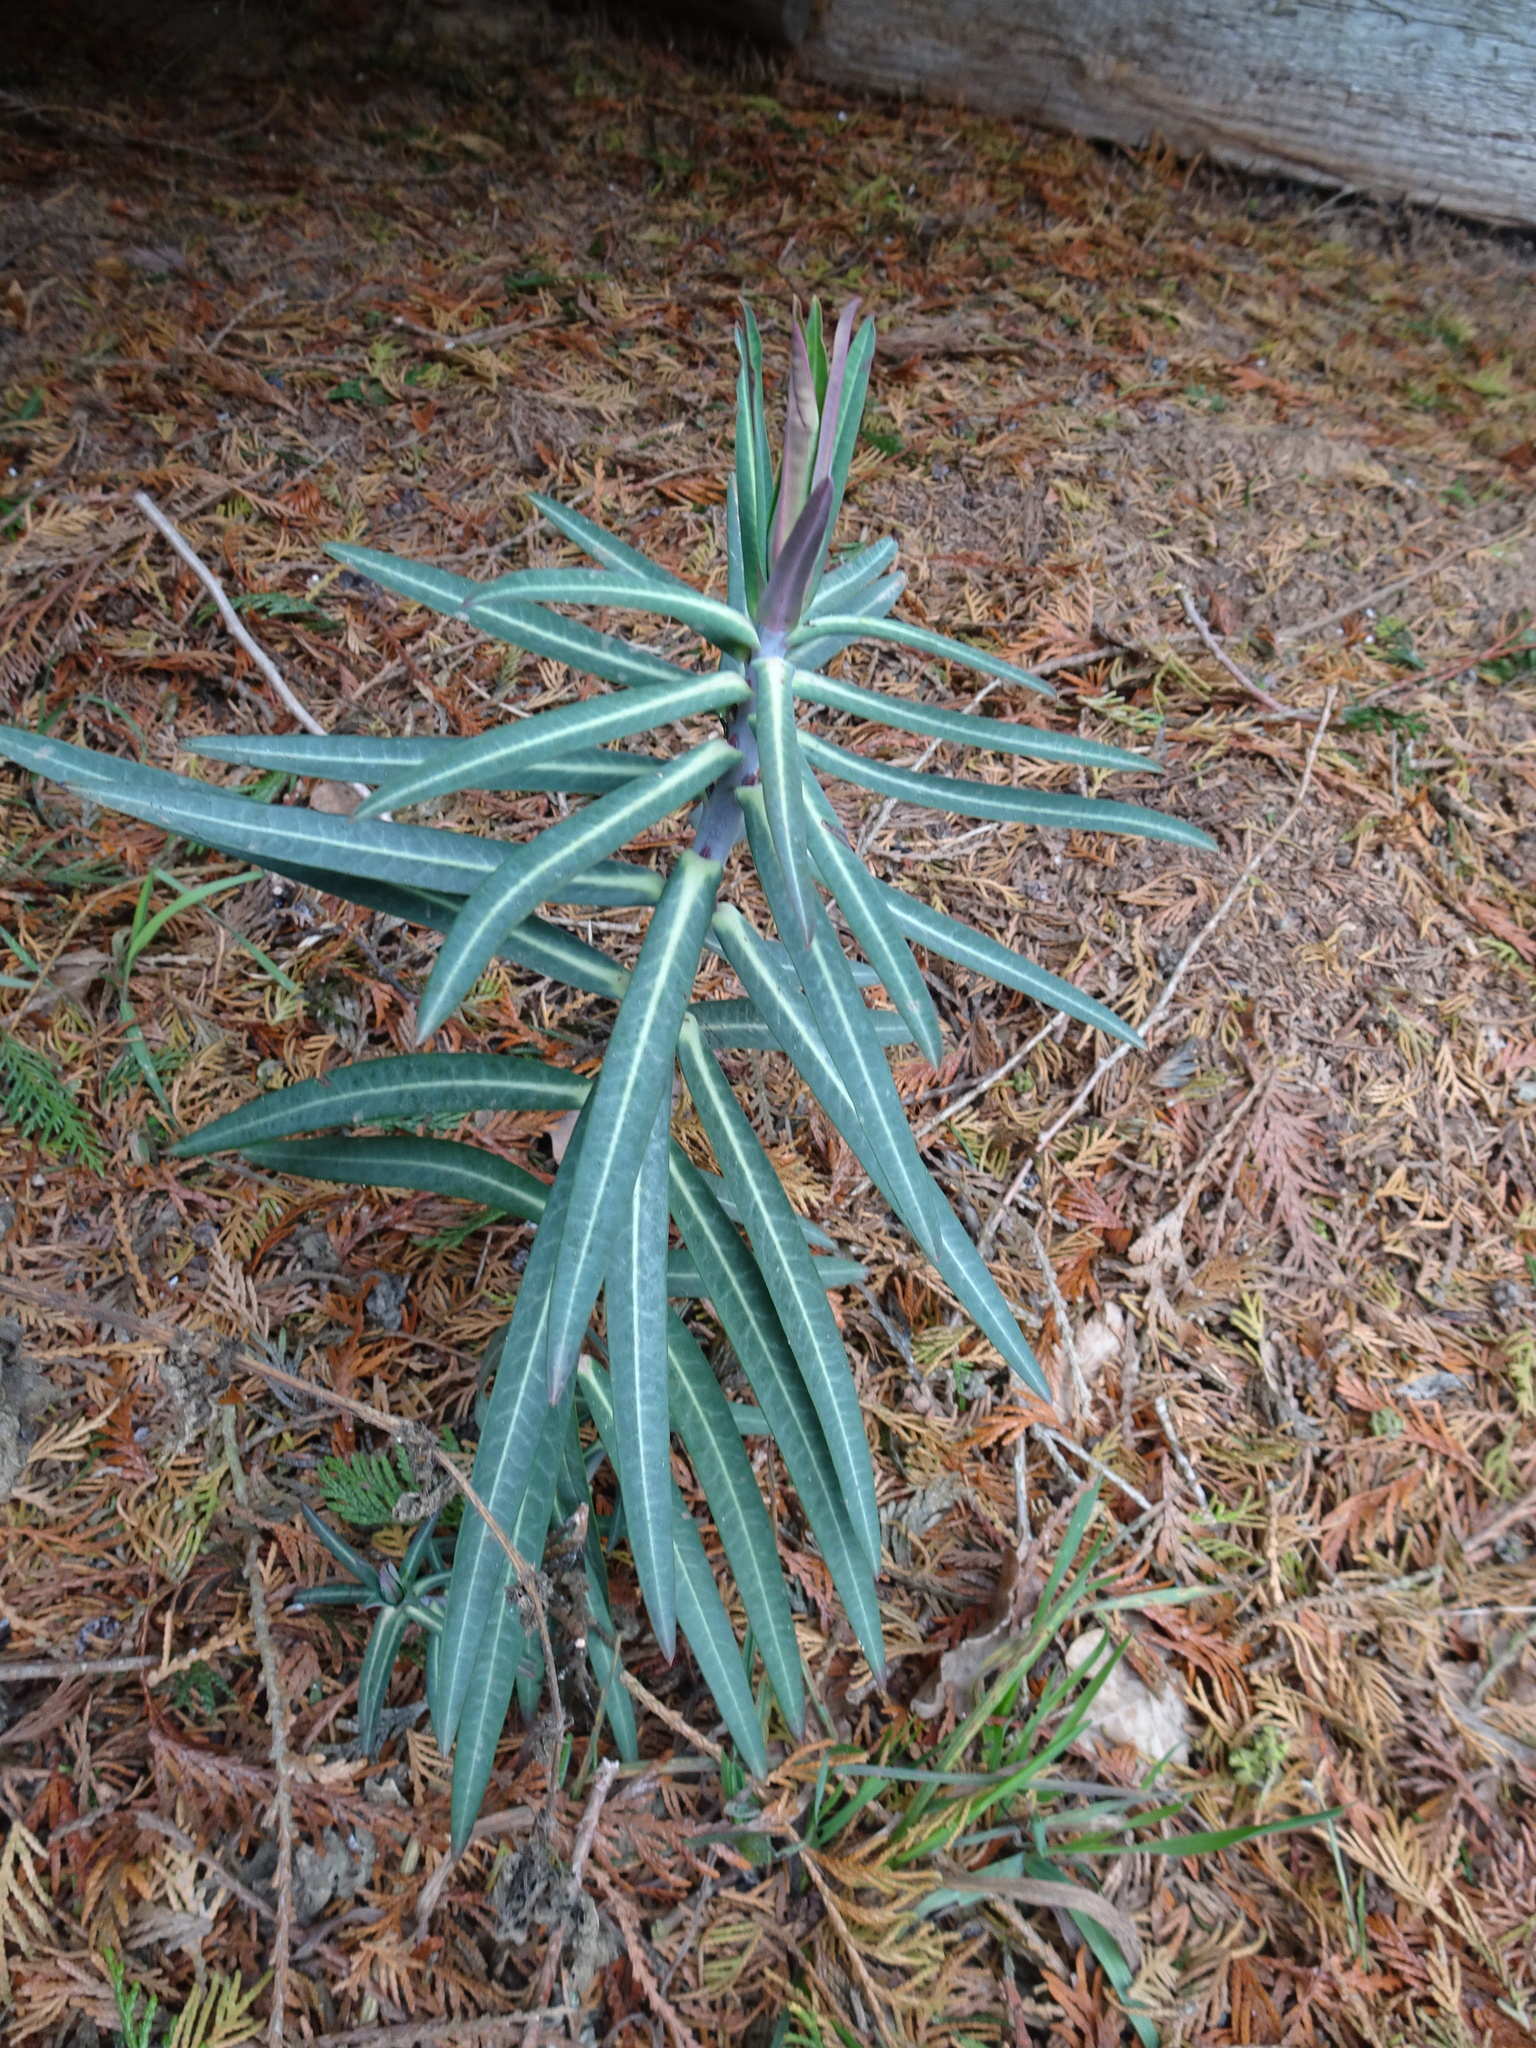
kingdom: Plantae
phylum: Tracheophyta
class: Magnoliopsida
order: Malpighiales
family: Euphorbiaceae
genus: Euphorbia
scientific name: Euphorbia lathyris
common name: Caper spurge
